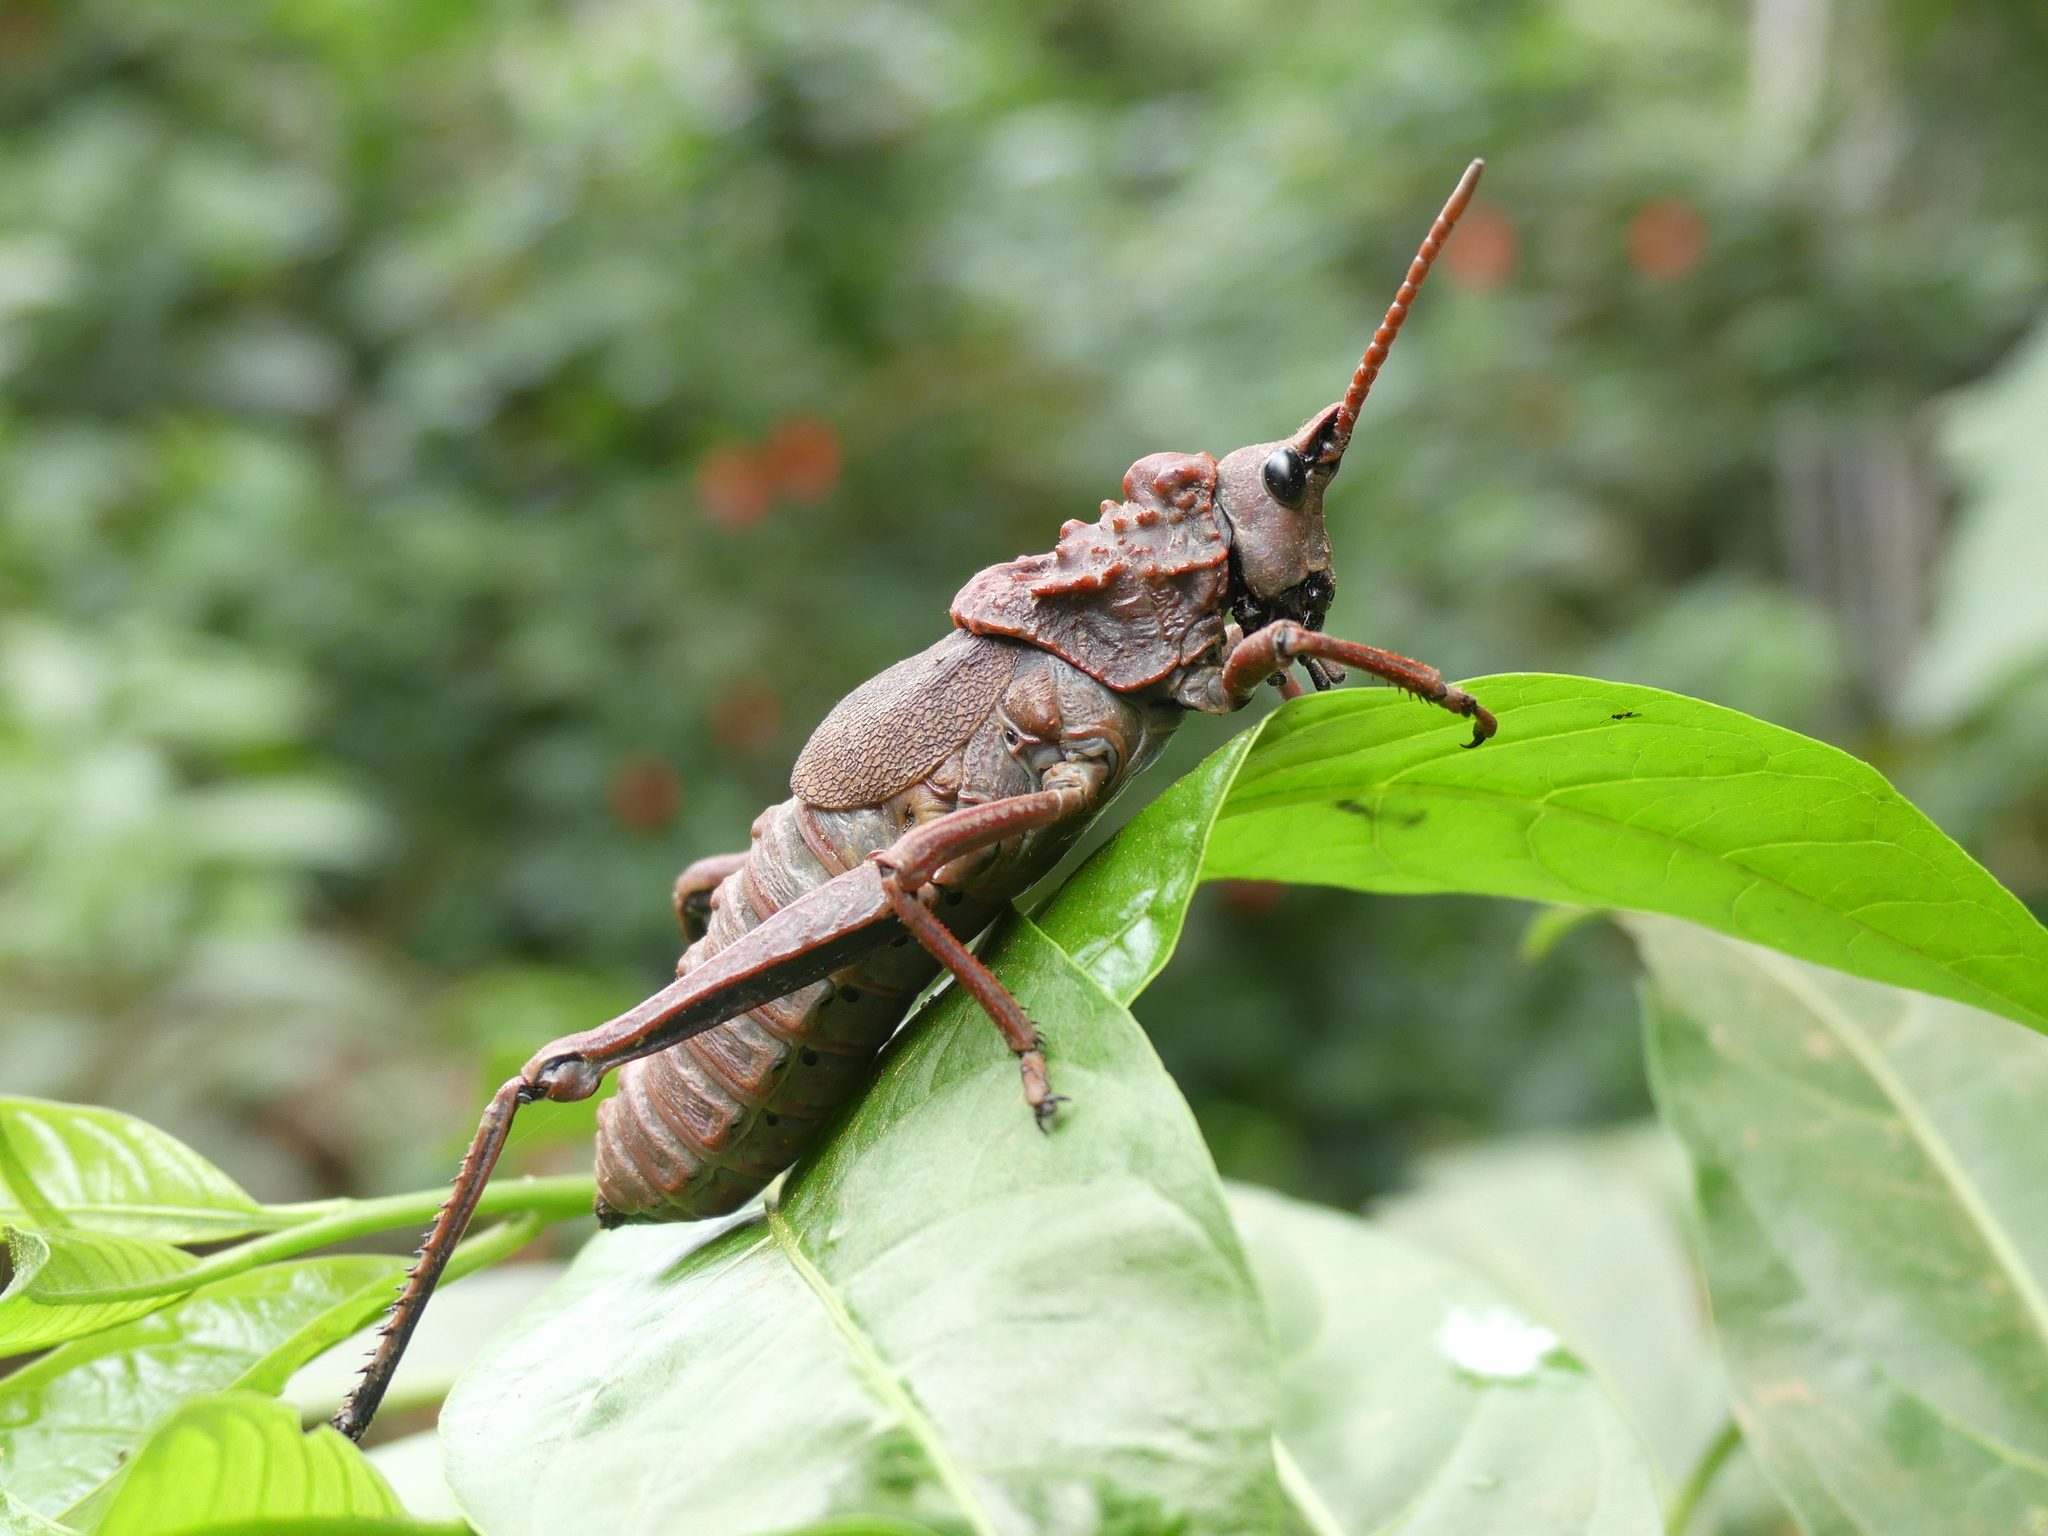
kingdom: Animalia
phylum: Arthropoda
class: Insecta
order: Orthoptera
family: Pyrgomorphidae
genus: Loveridgacris
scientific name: Loveridgacris impotens
